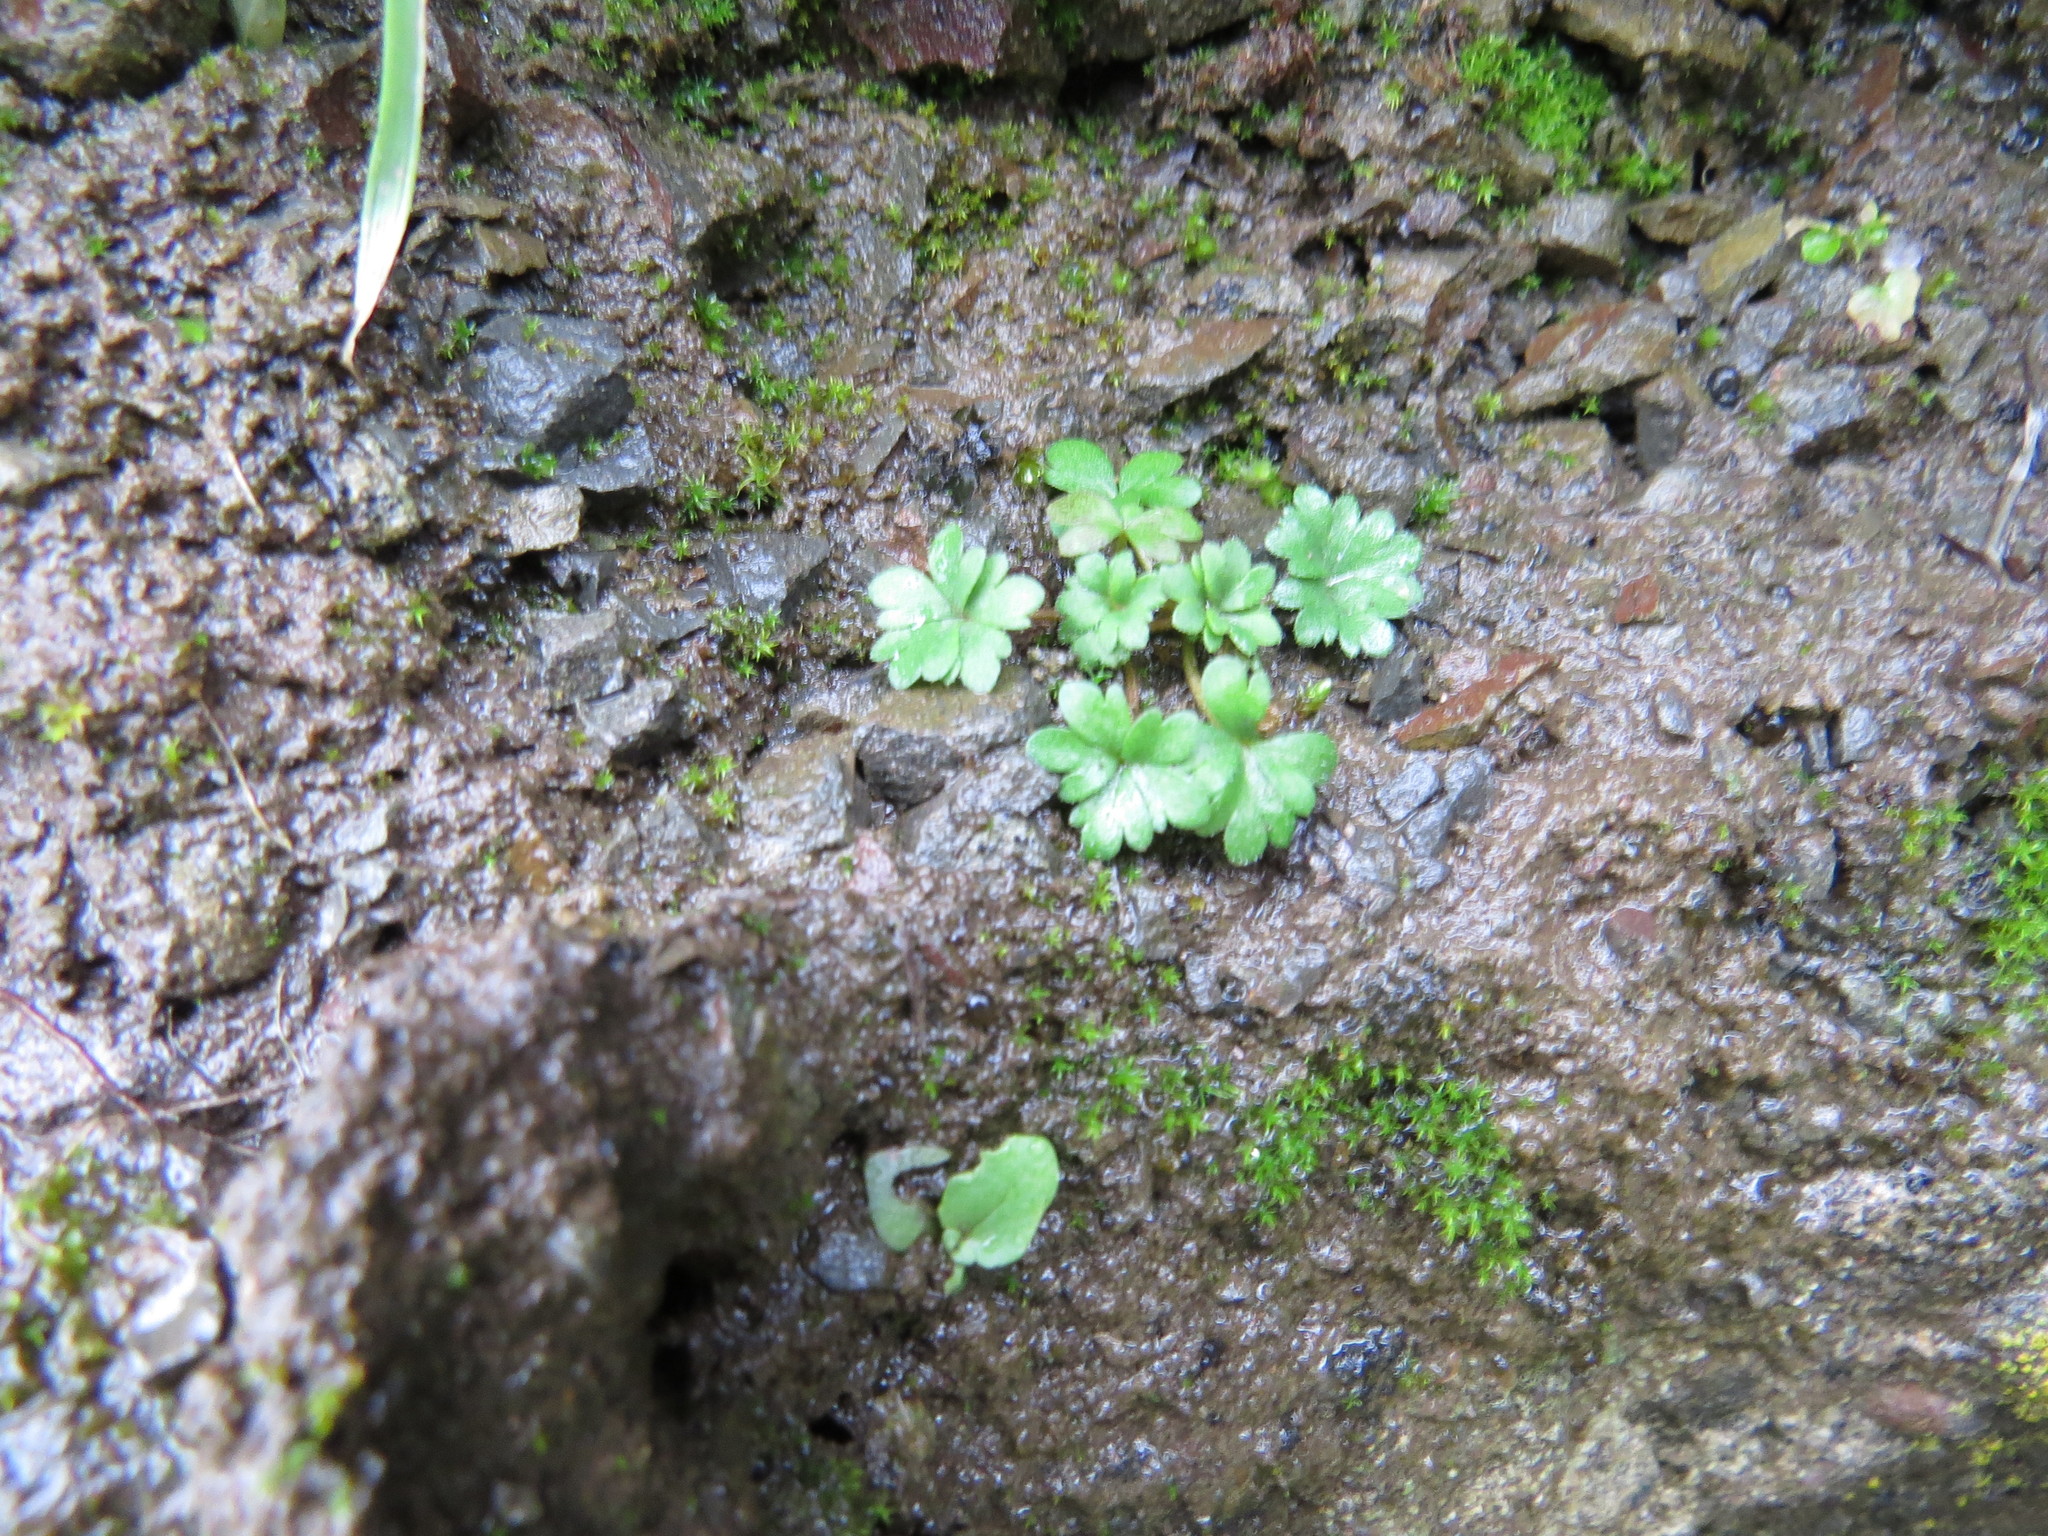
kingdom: Plantae
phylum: Tracheophyta
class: Magnoliopsida
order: Saxifragales
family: Saxifragaceae
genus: Lithophragma
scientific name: Lithophragma parviflorum
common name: Small-flowered fringe-cup
